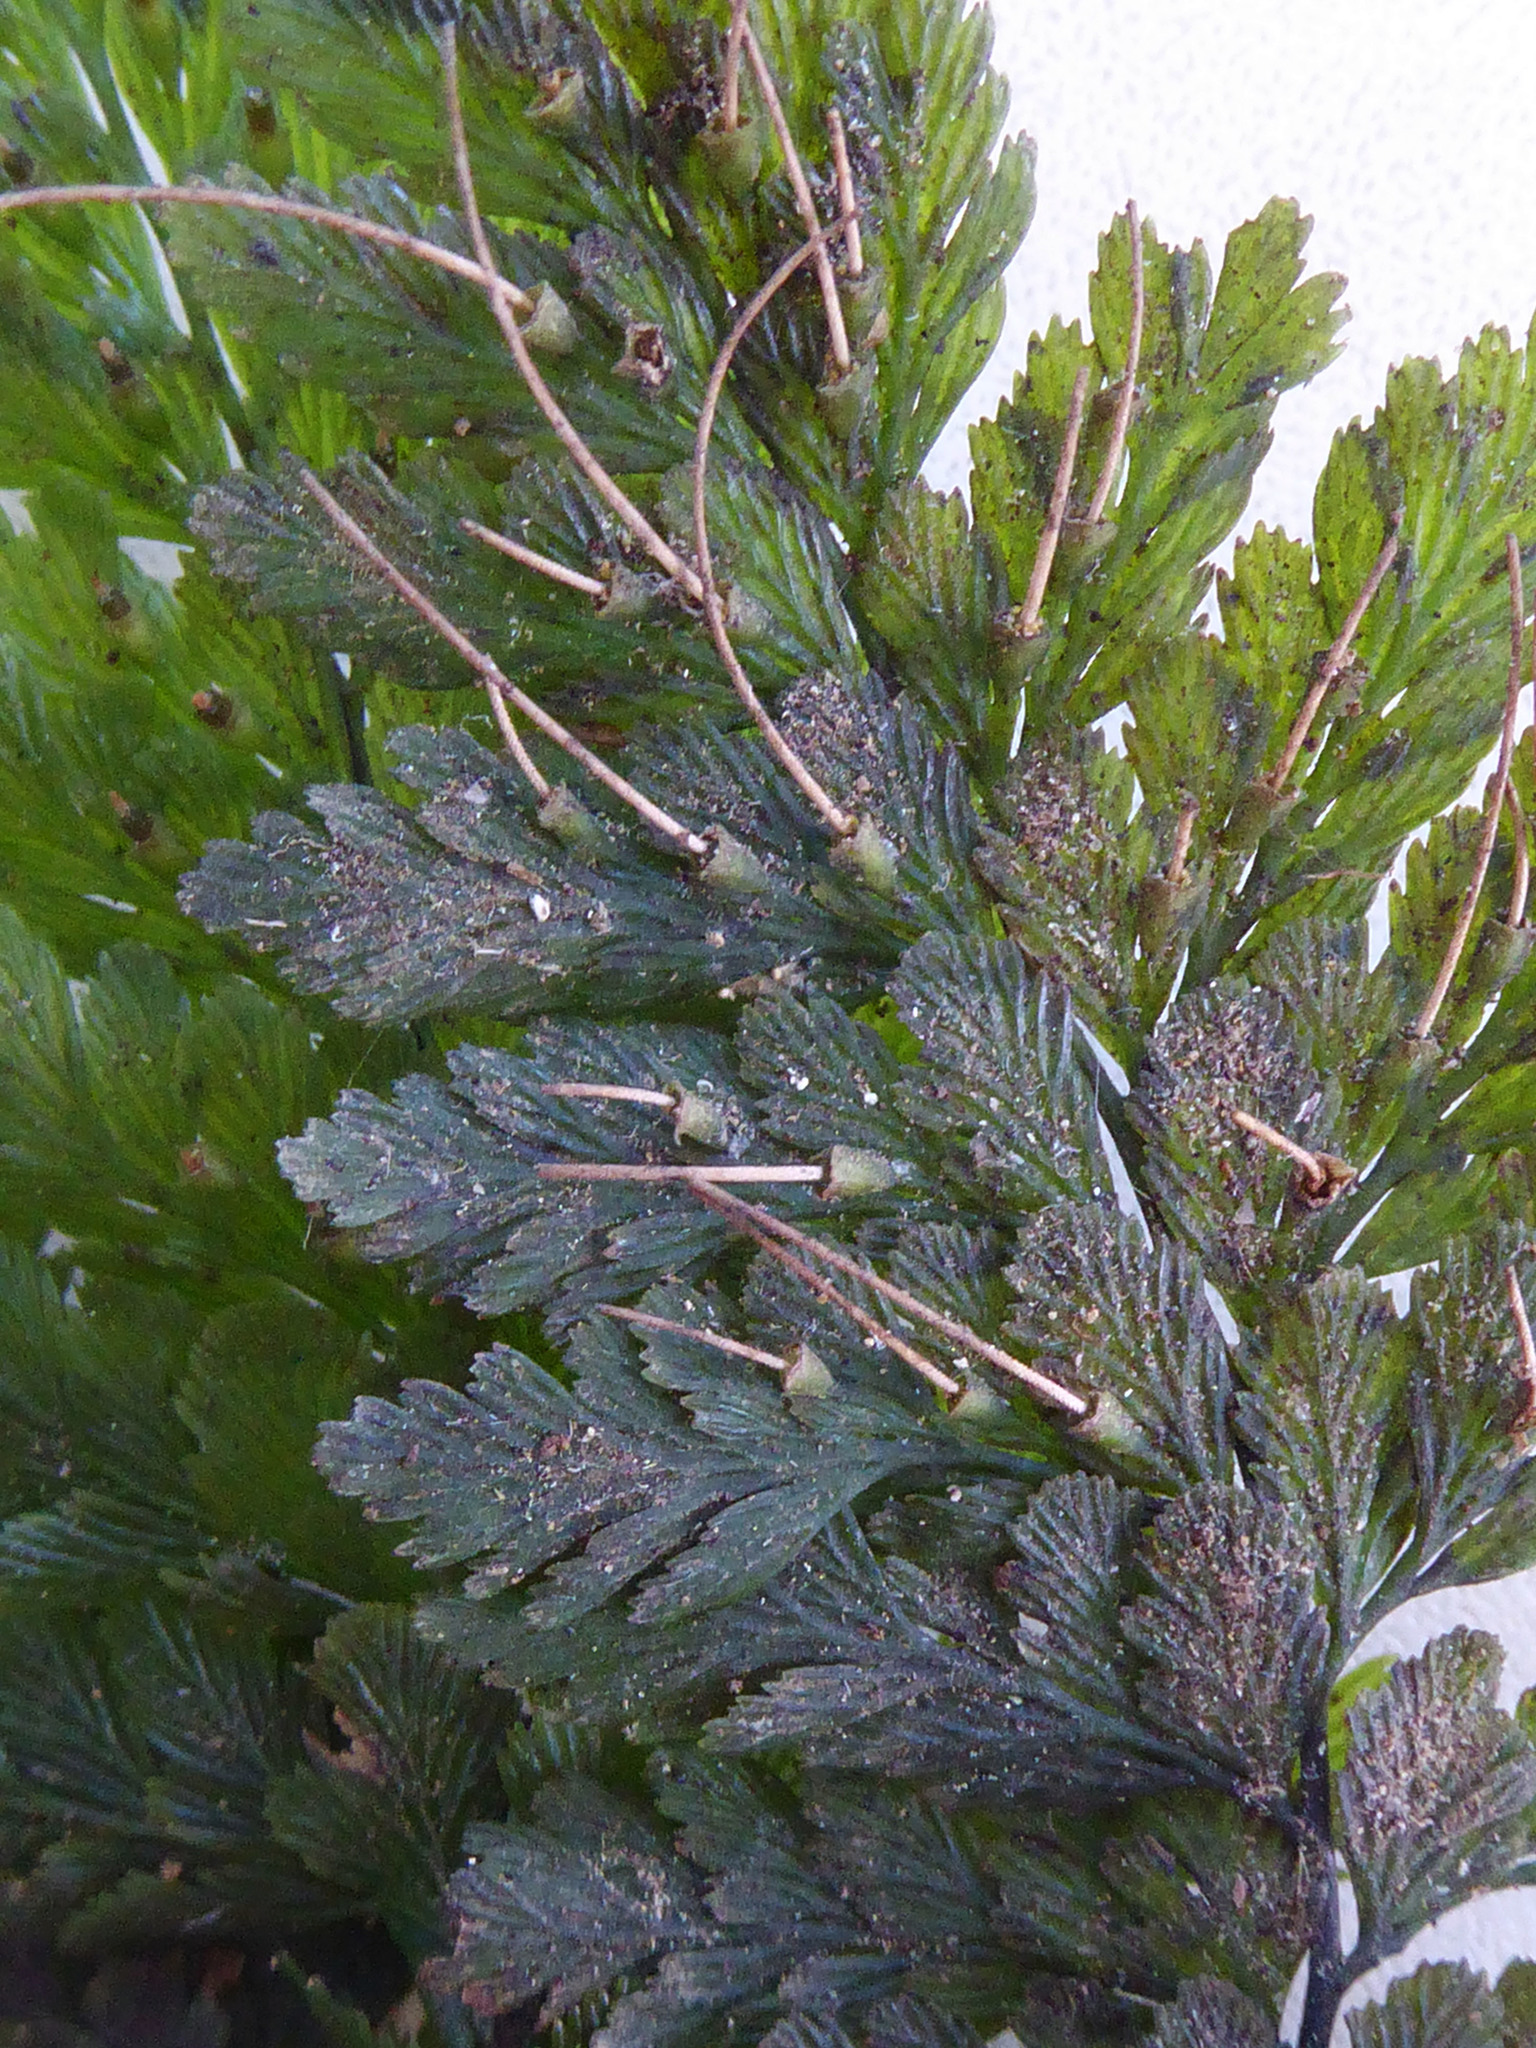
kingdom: Plantae
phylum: Tracheophyta
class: Polypodiopsida
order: Hymenophyllales
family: Hymenophyllaceae
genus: Abrodictyum
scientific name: Abrodictyum elongatum
